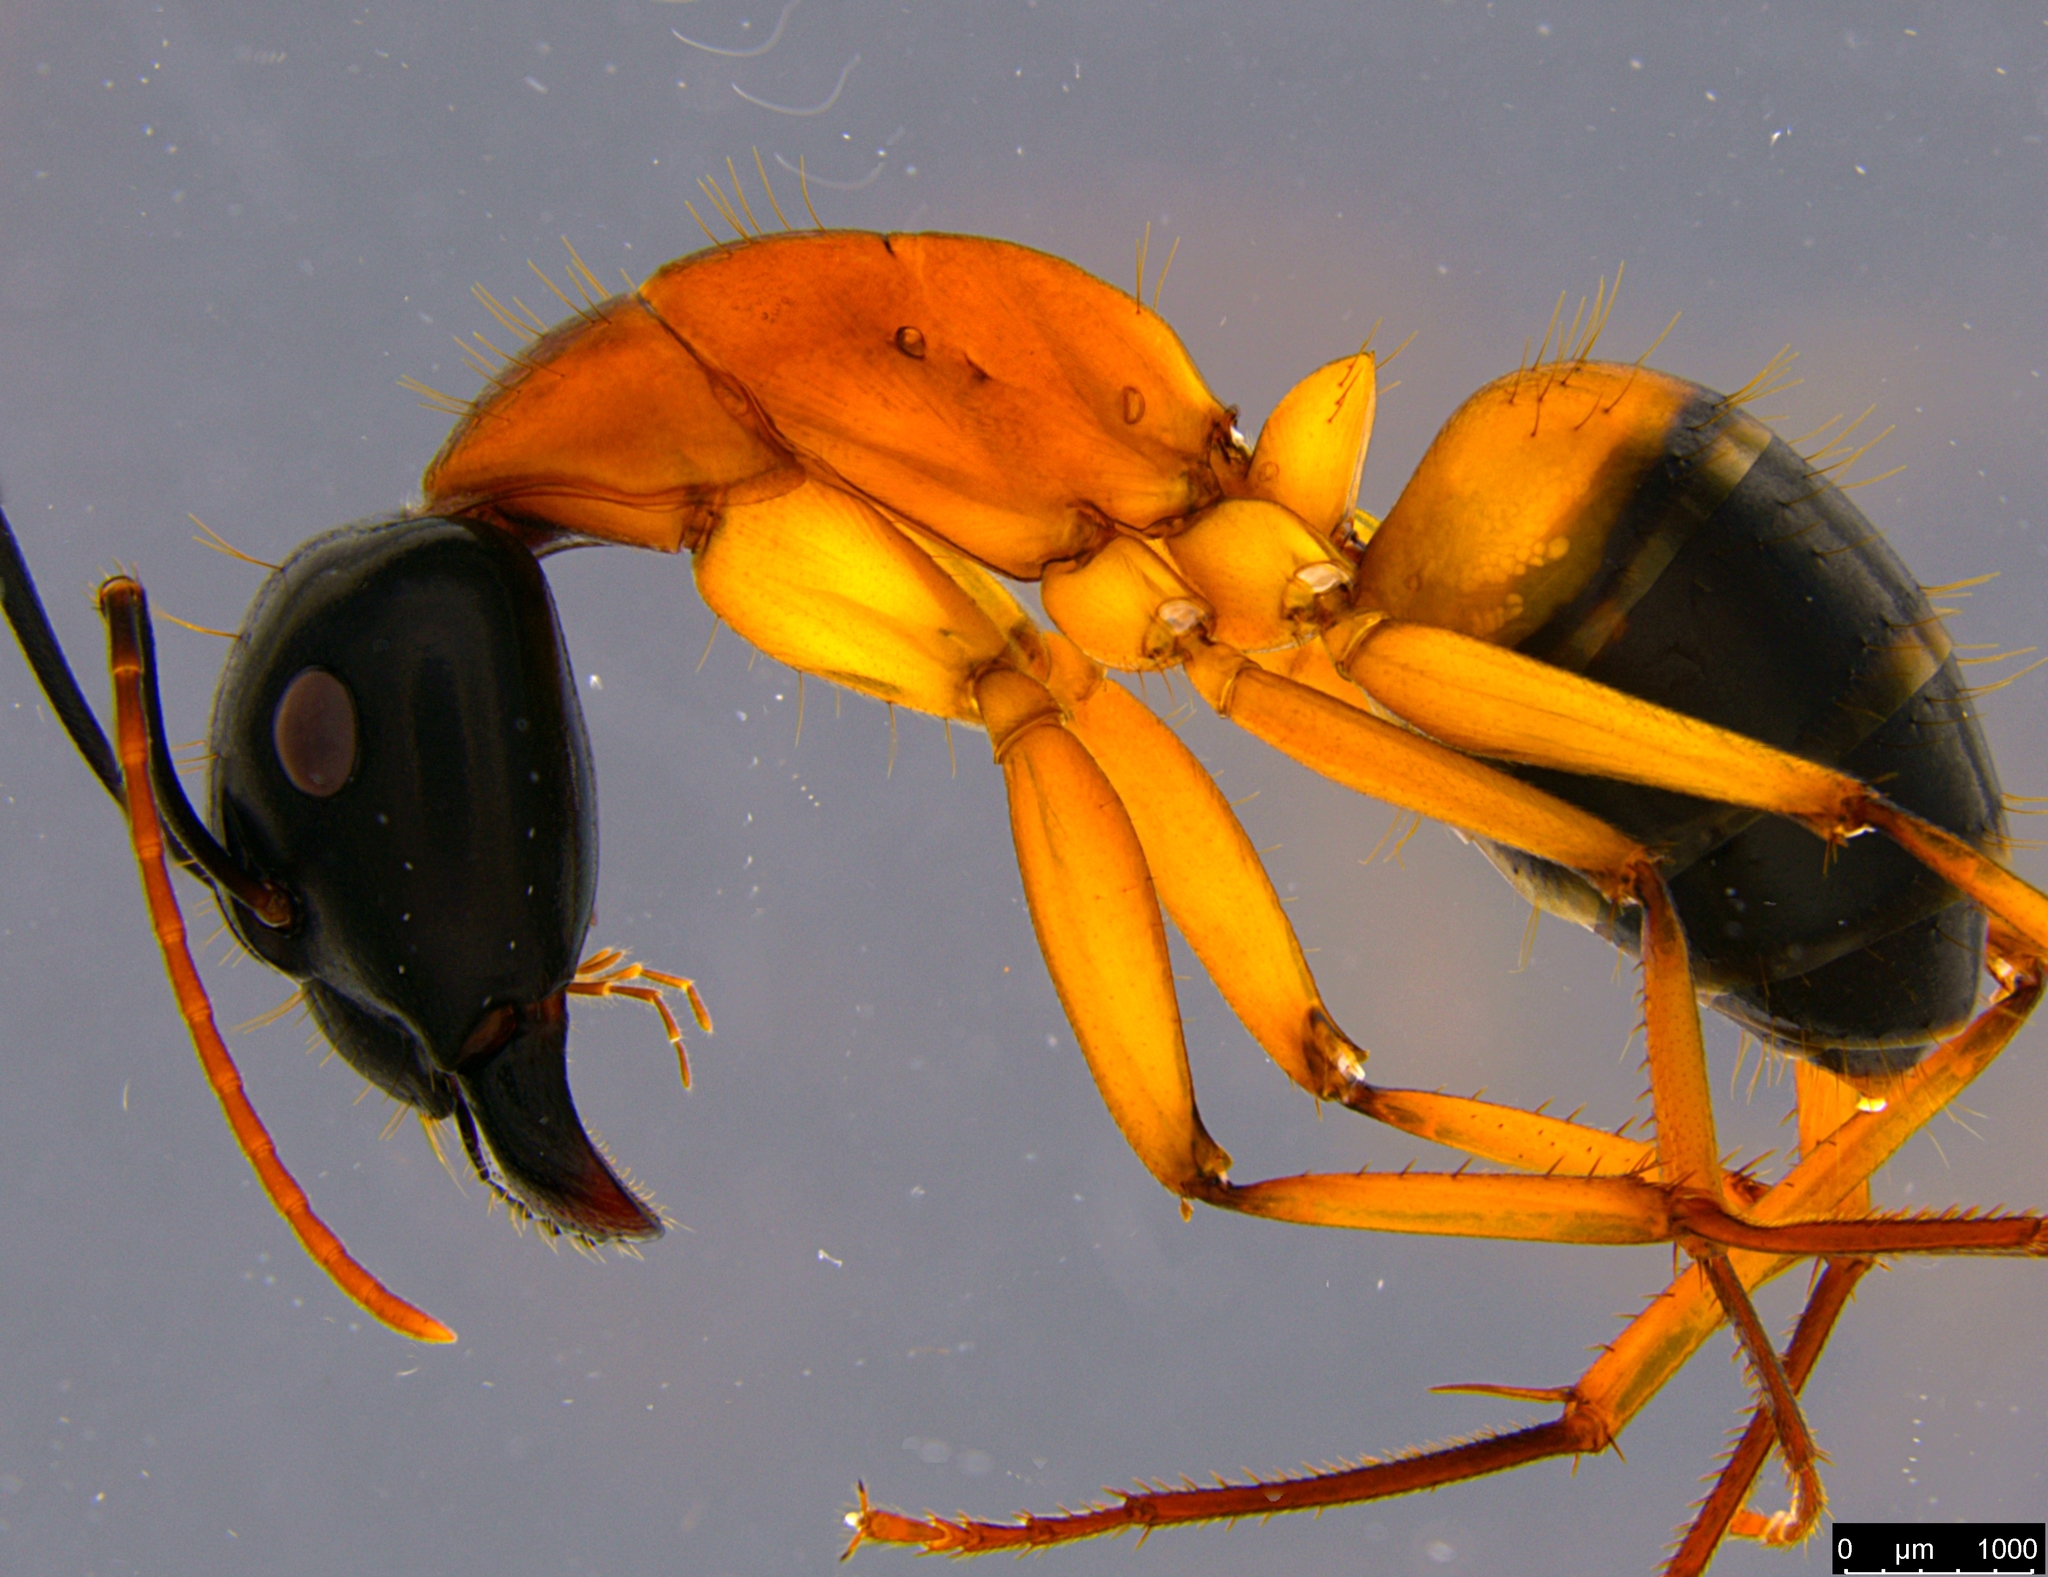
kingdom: Animalia
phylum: Arthropoda
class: Insecta
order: Hymenoptera
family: Formicidae
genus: Camponotus
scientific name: Camponotus consobrinus
